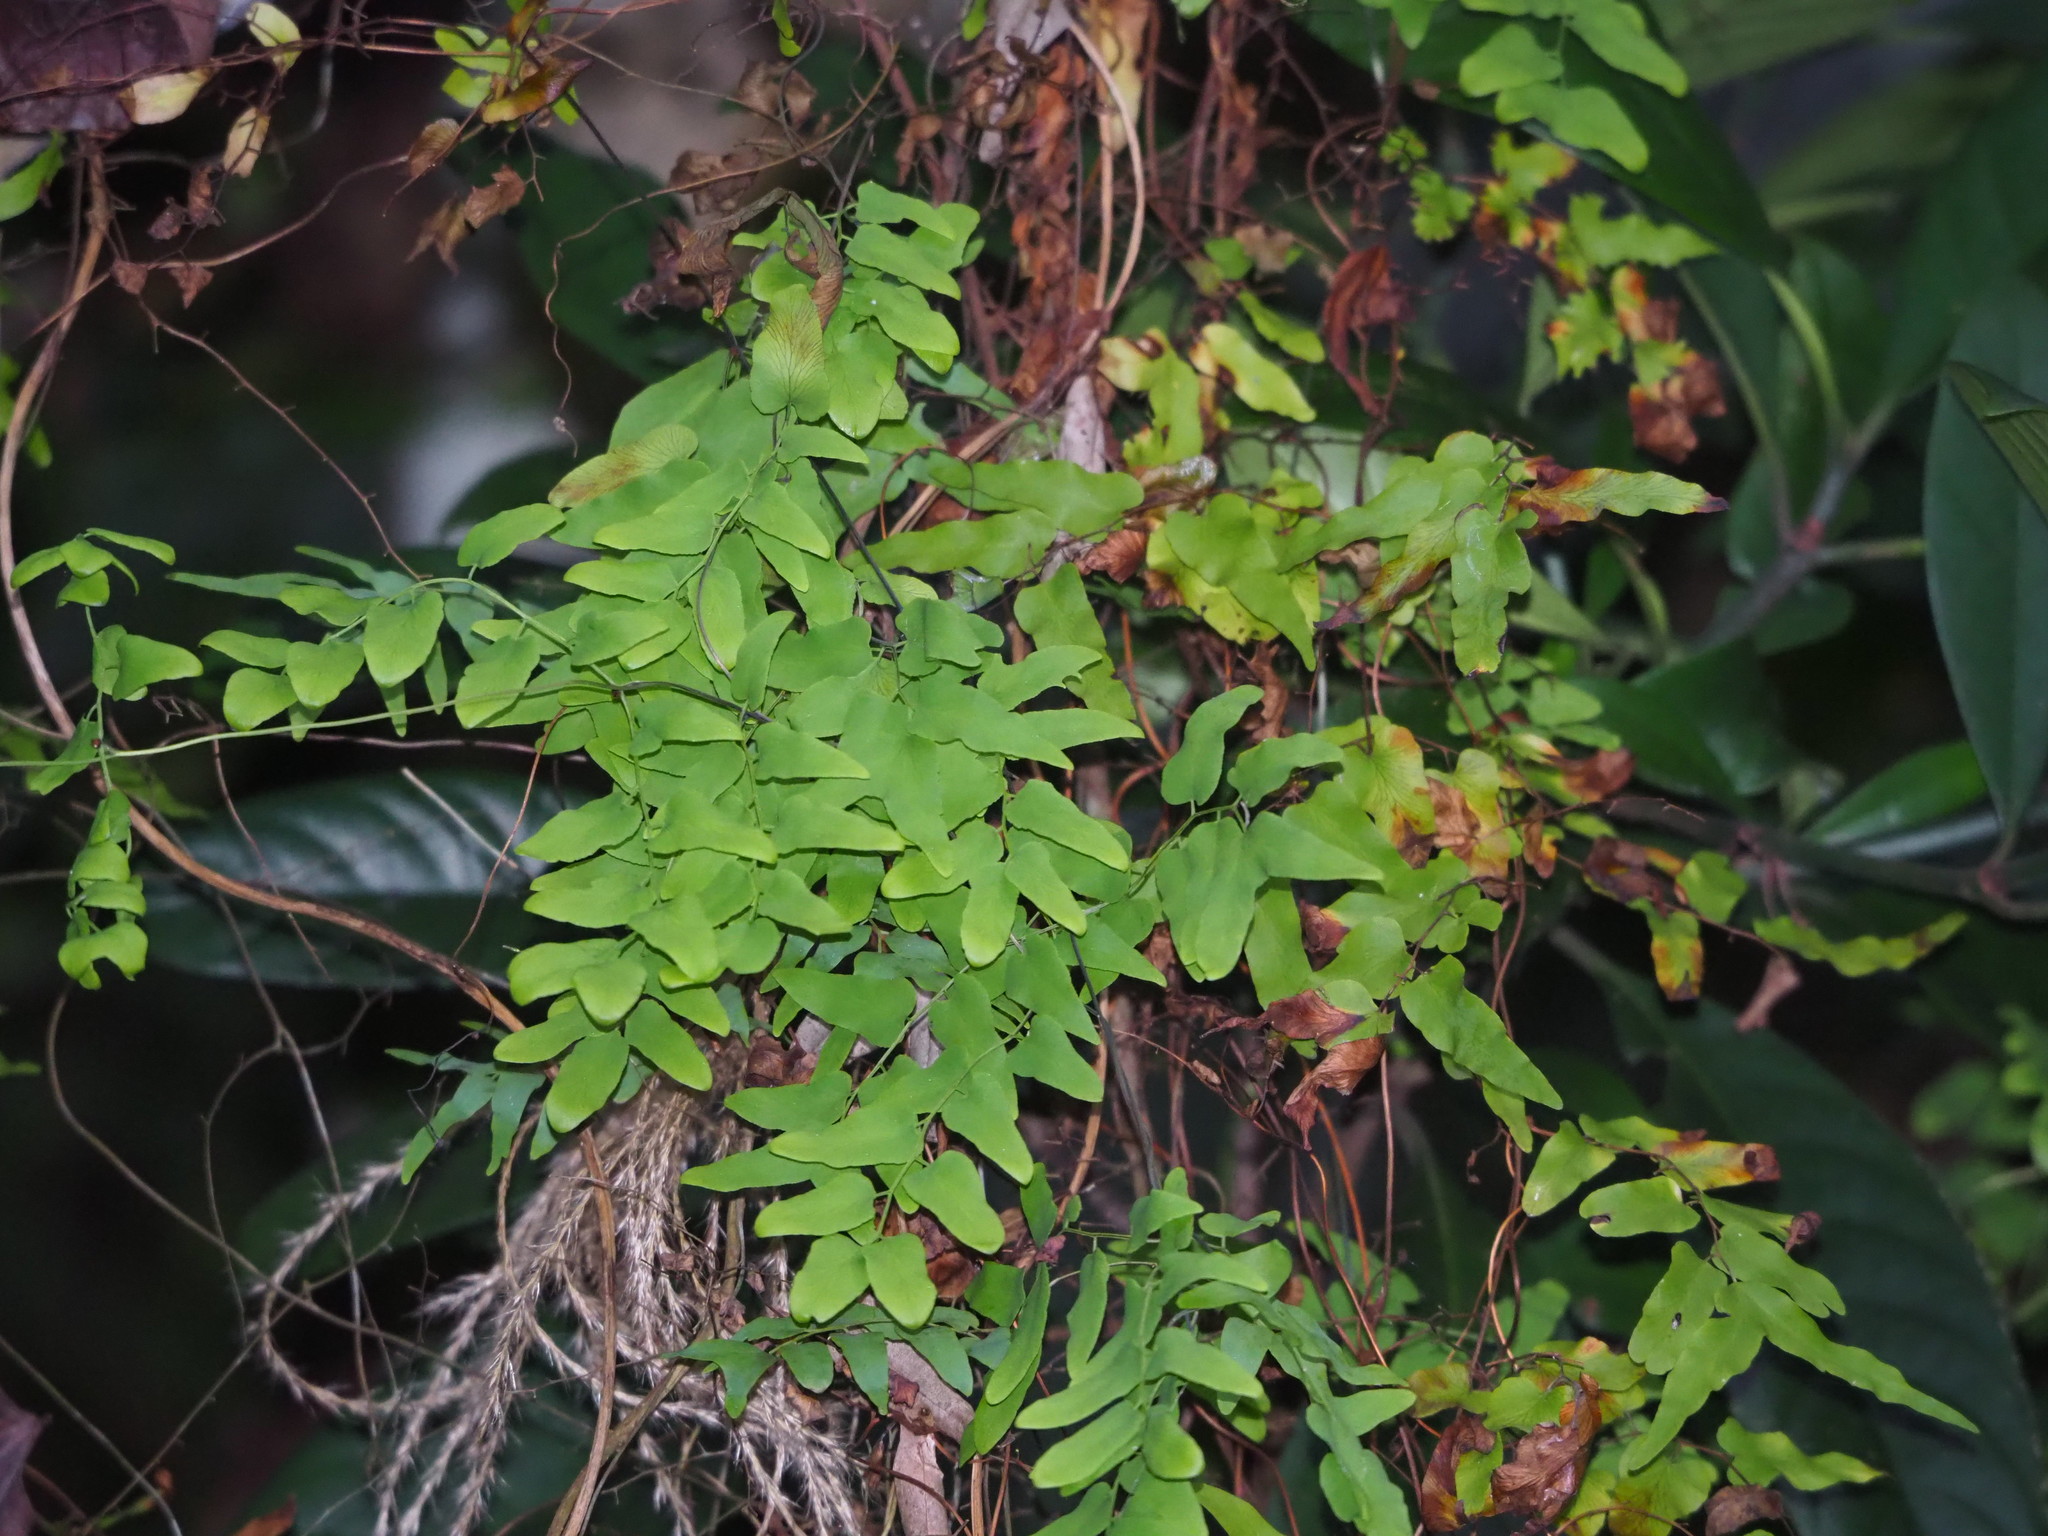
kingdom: Plantae
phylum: Tracheophyta
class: Polypodiopsida
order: Schizaeales
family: Lygodiaceae
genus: Lygodium
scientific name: Lygodium microphyllum
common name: Small-leaf climbing fern
